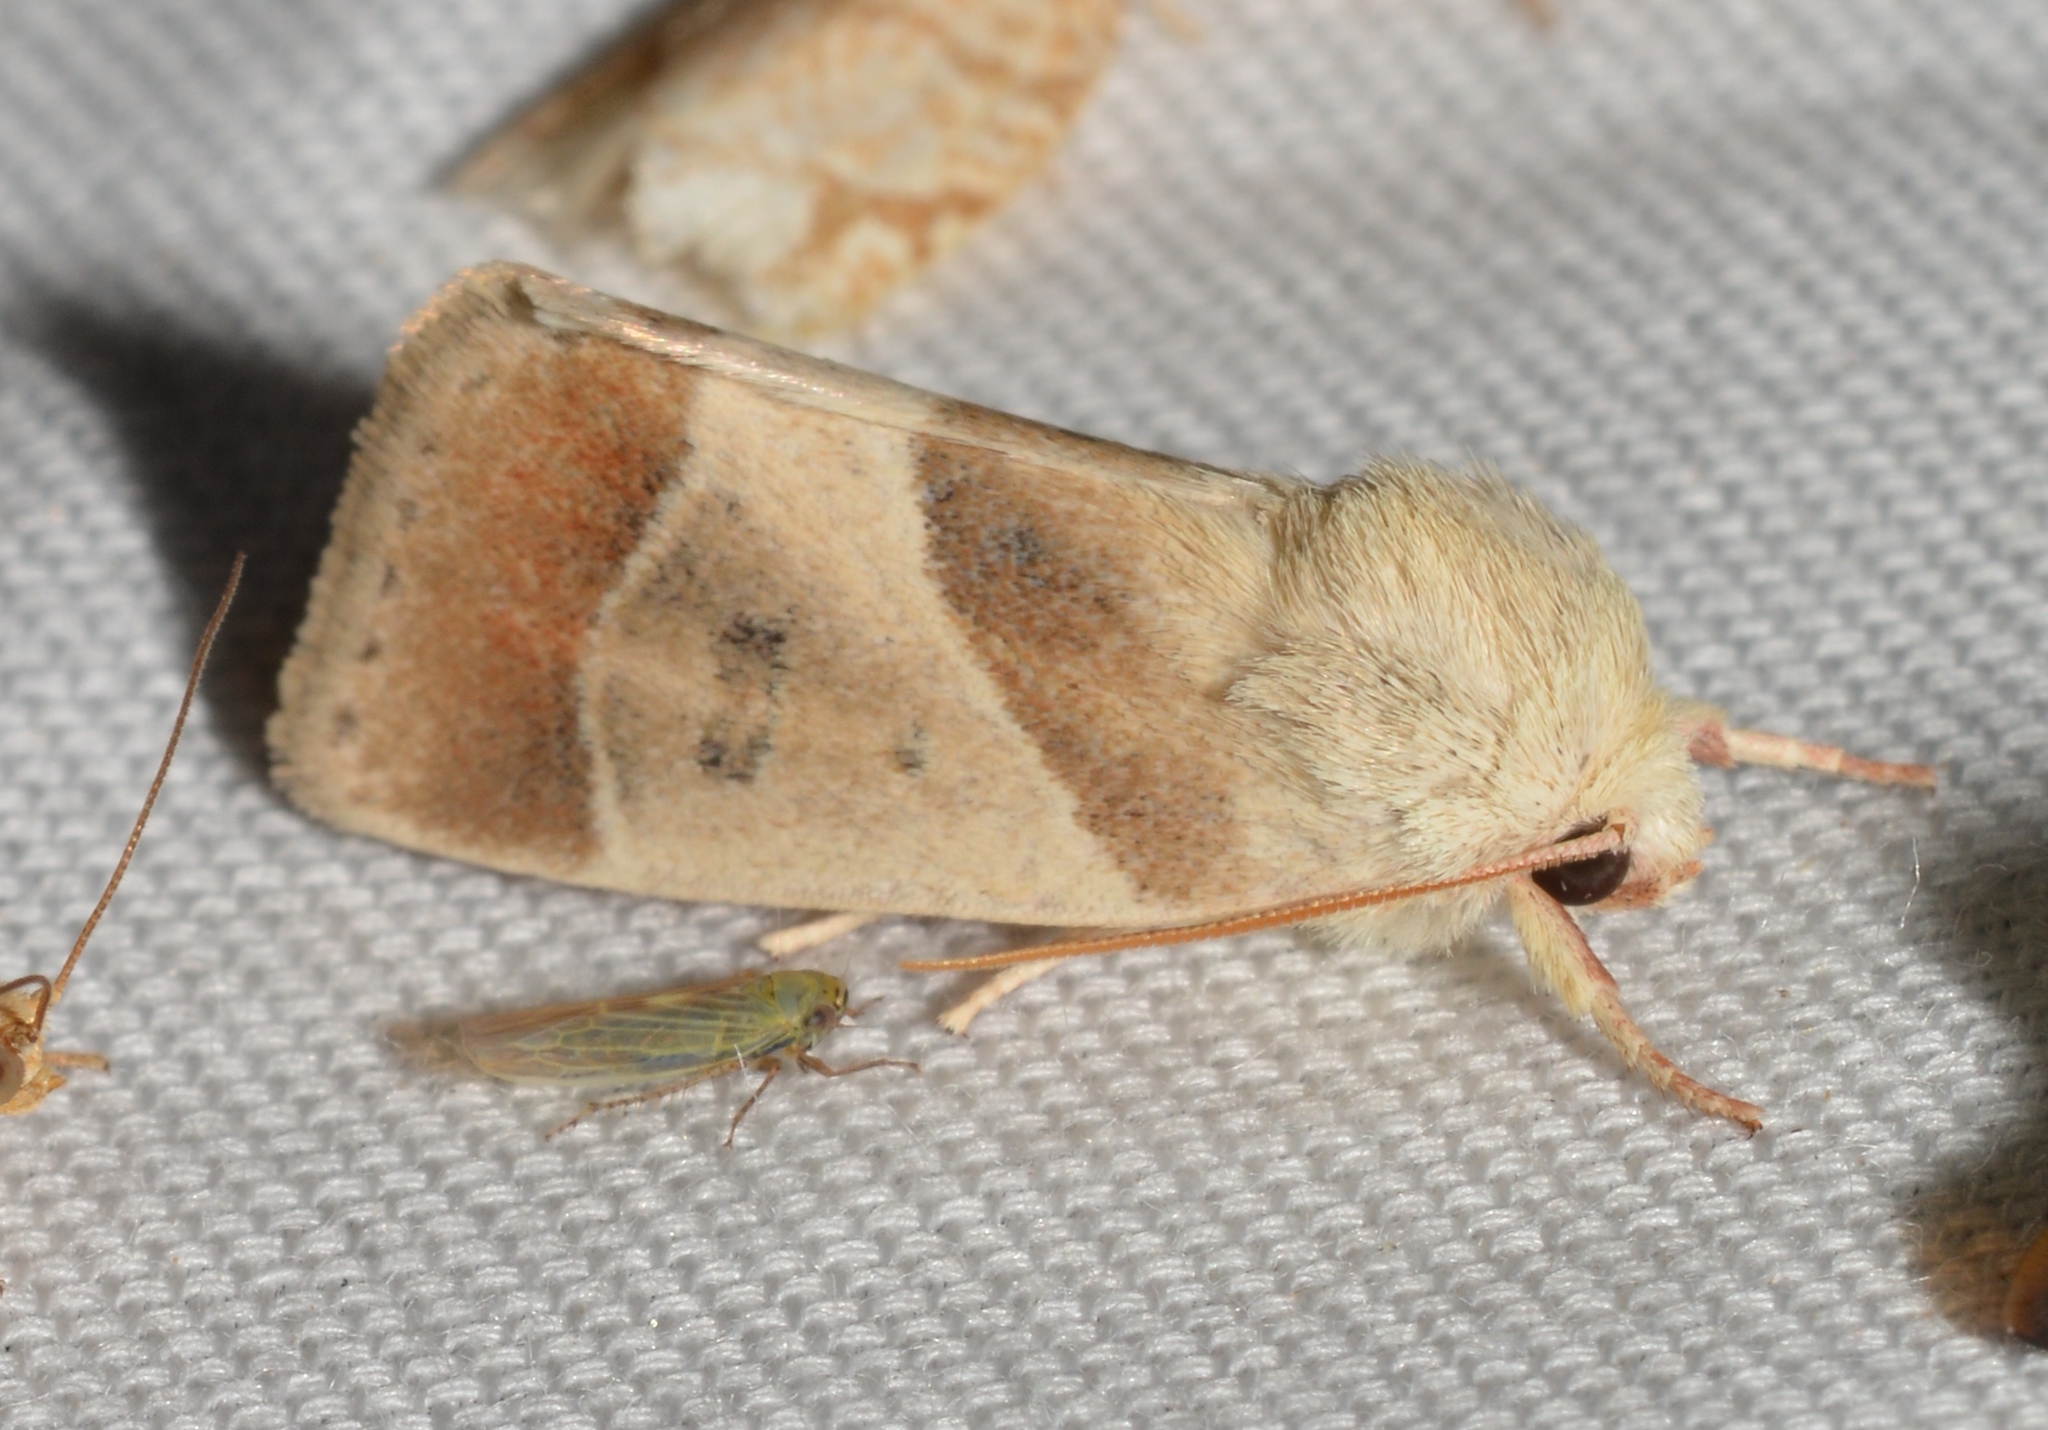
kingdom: Animalia
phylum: Arthropoda
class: Insecta
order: Lepidoptera
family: Noctuidae
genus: Cosmia
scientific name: Cosmia calami
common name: American dun-bar moth
